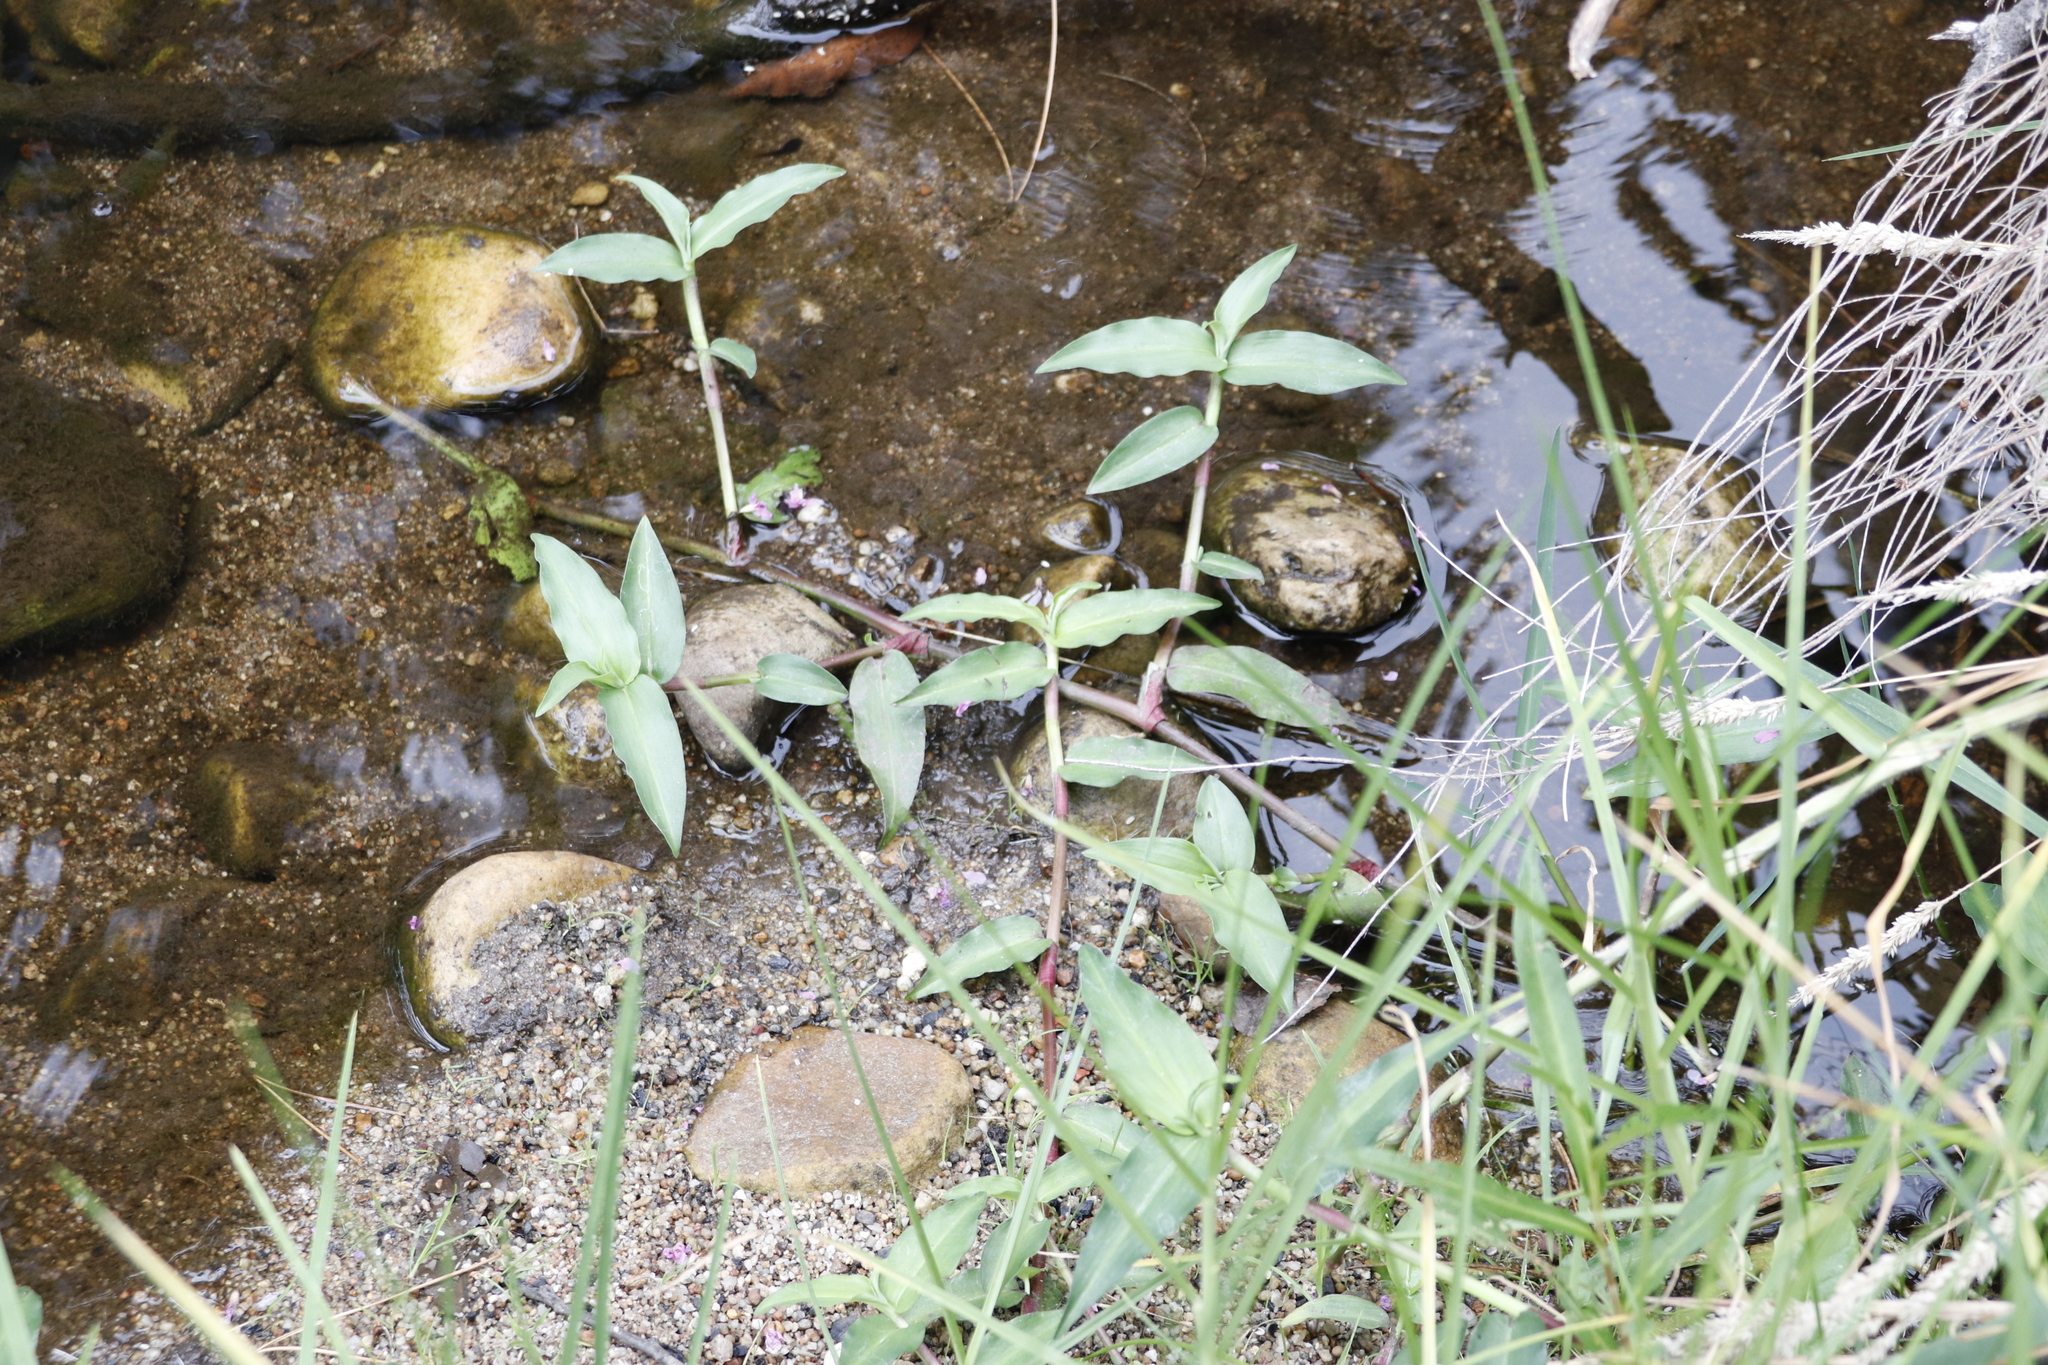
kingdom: Plantae
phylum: Tracheophyta
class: Liliopsida
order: Commelinales
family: Commelinaceae
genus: Commelina
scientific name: Commelina diffusa
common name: Climbing dayflower
